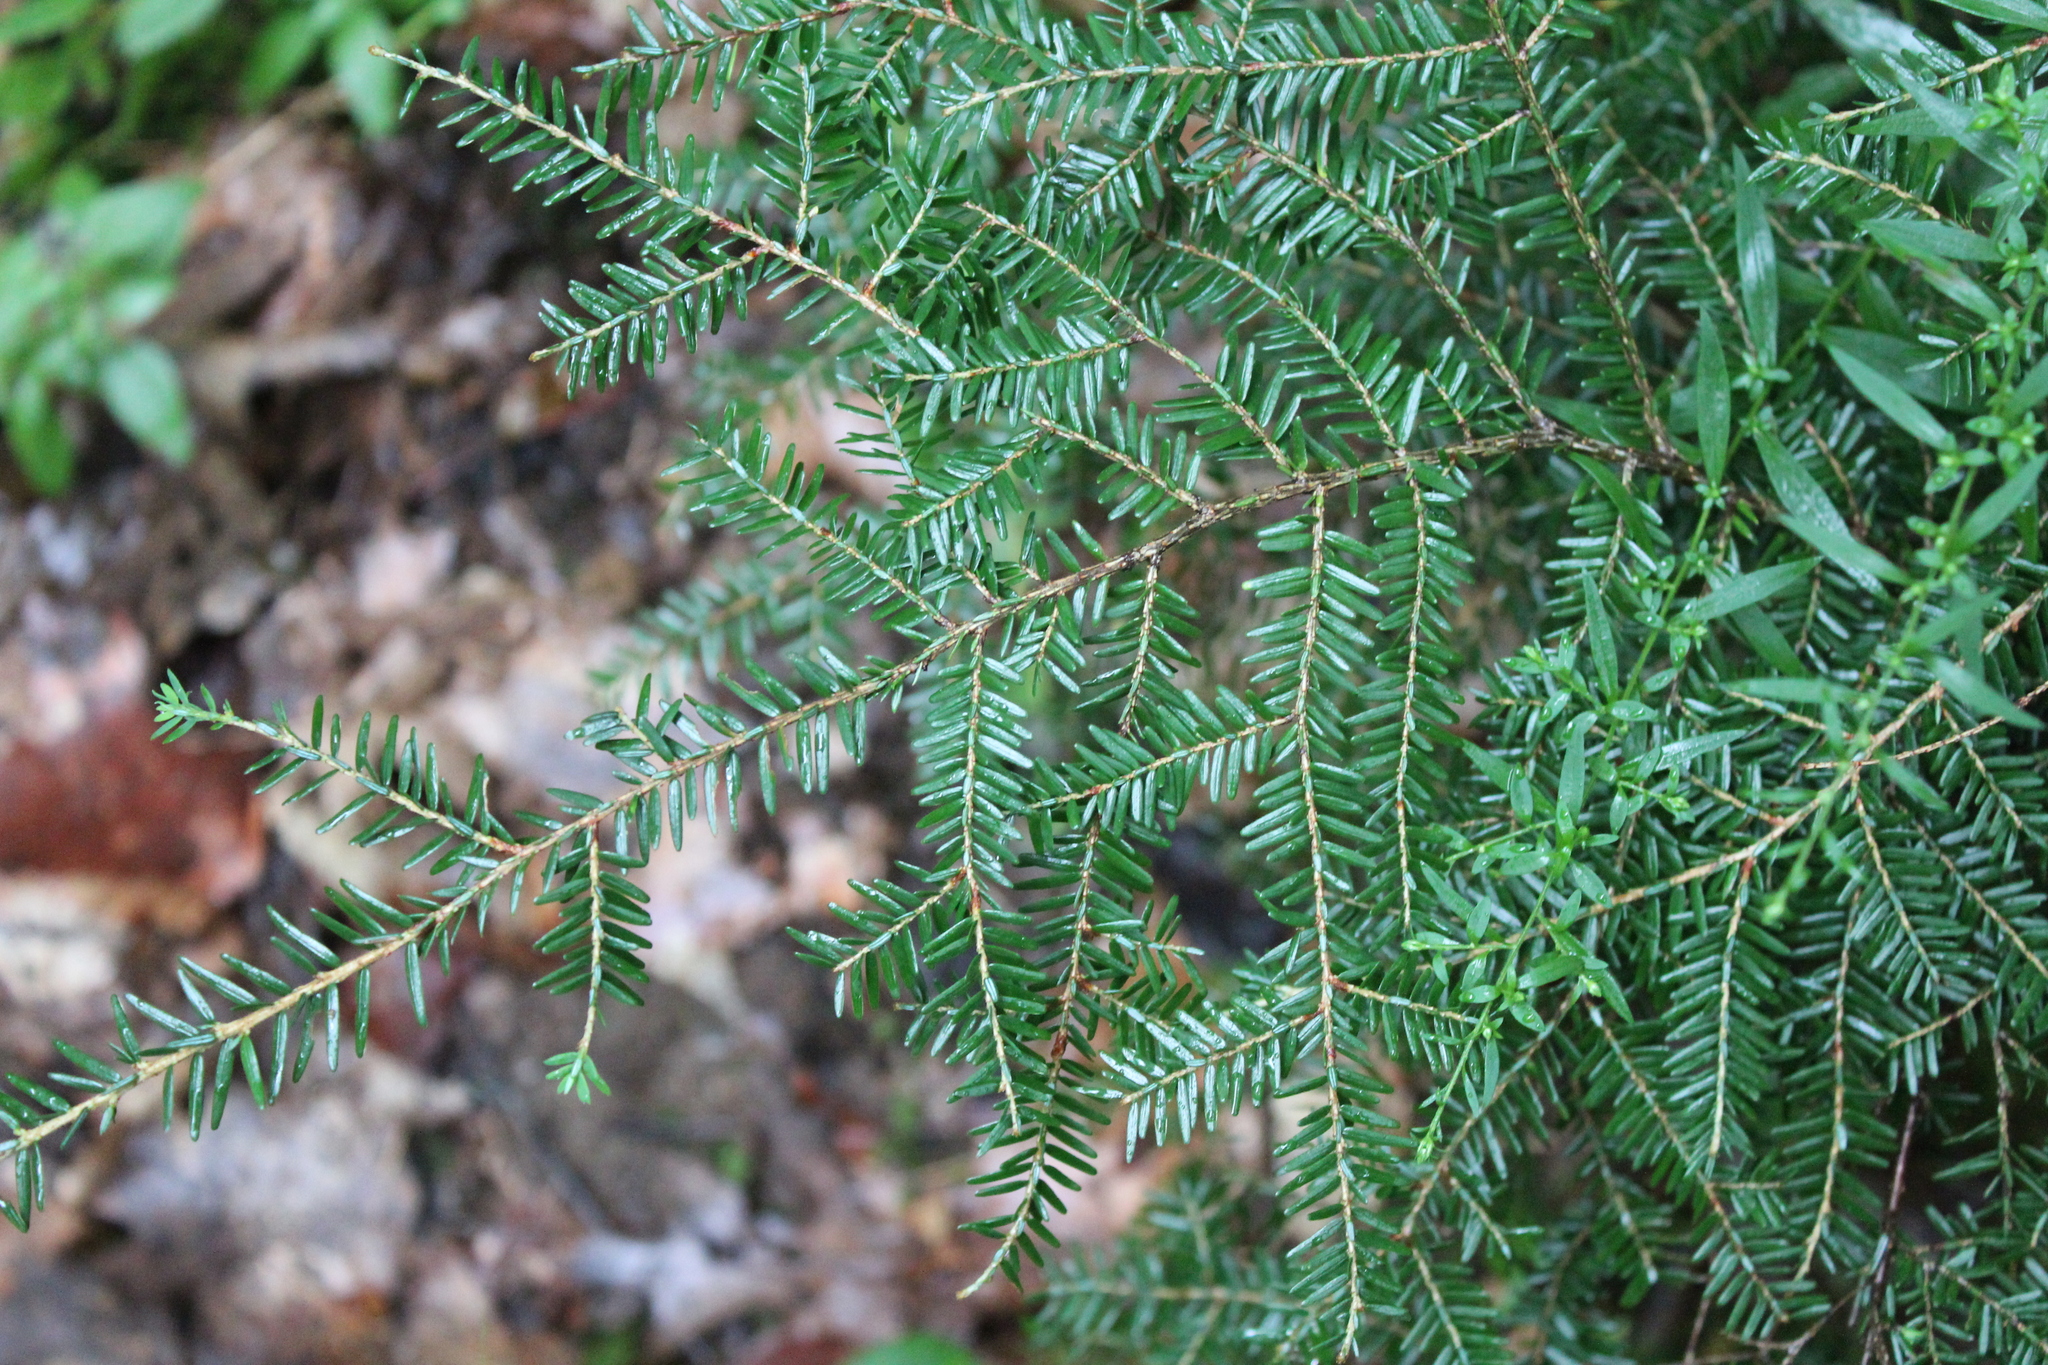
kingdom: Plantae
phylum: Tracheophyta
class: Pinopsida
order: Pinales
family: Pinaceae
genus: Tsuga
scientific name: Tsuga canadensis
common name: Eastern hemlock
